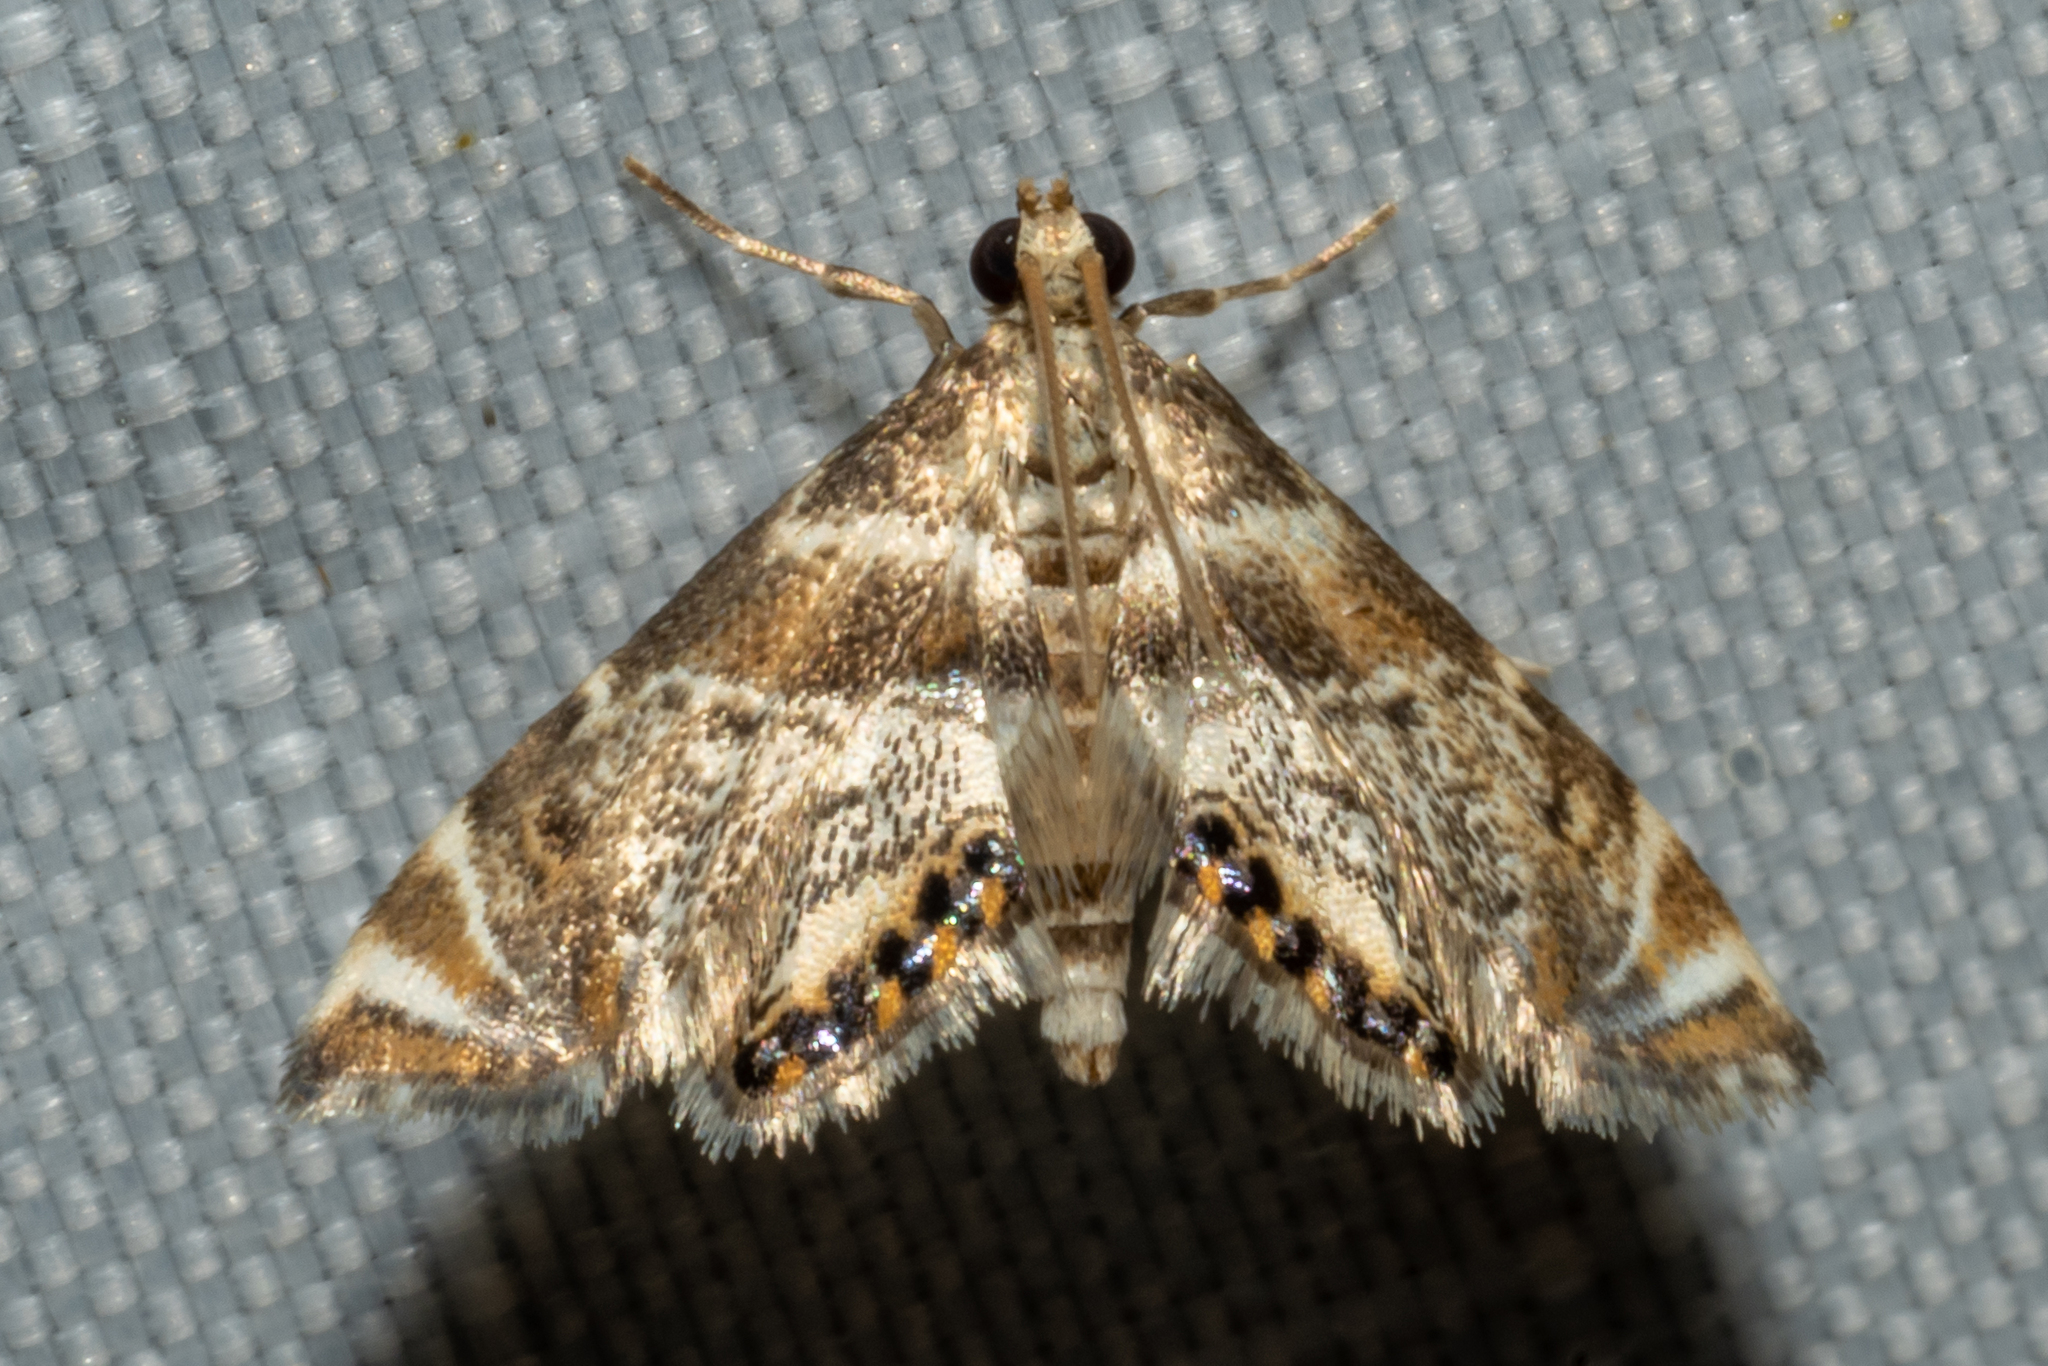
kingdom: Animalia
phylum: Arthropoda
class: Insecta
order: Lepidoptera
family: Crambidae
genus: Petrophila
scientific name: Petrophila fulicalis
